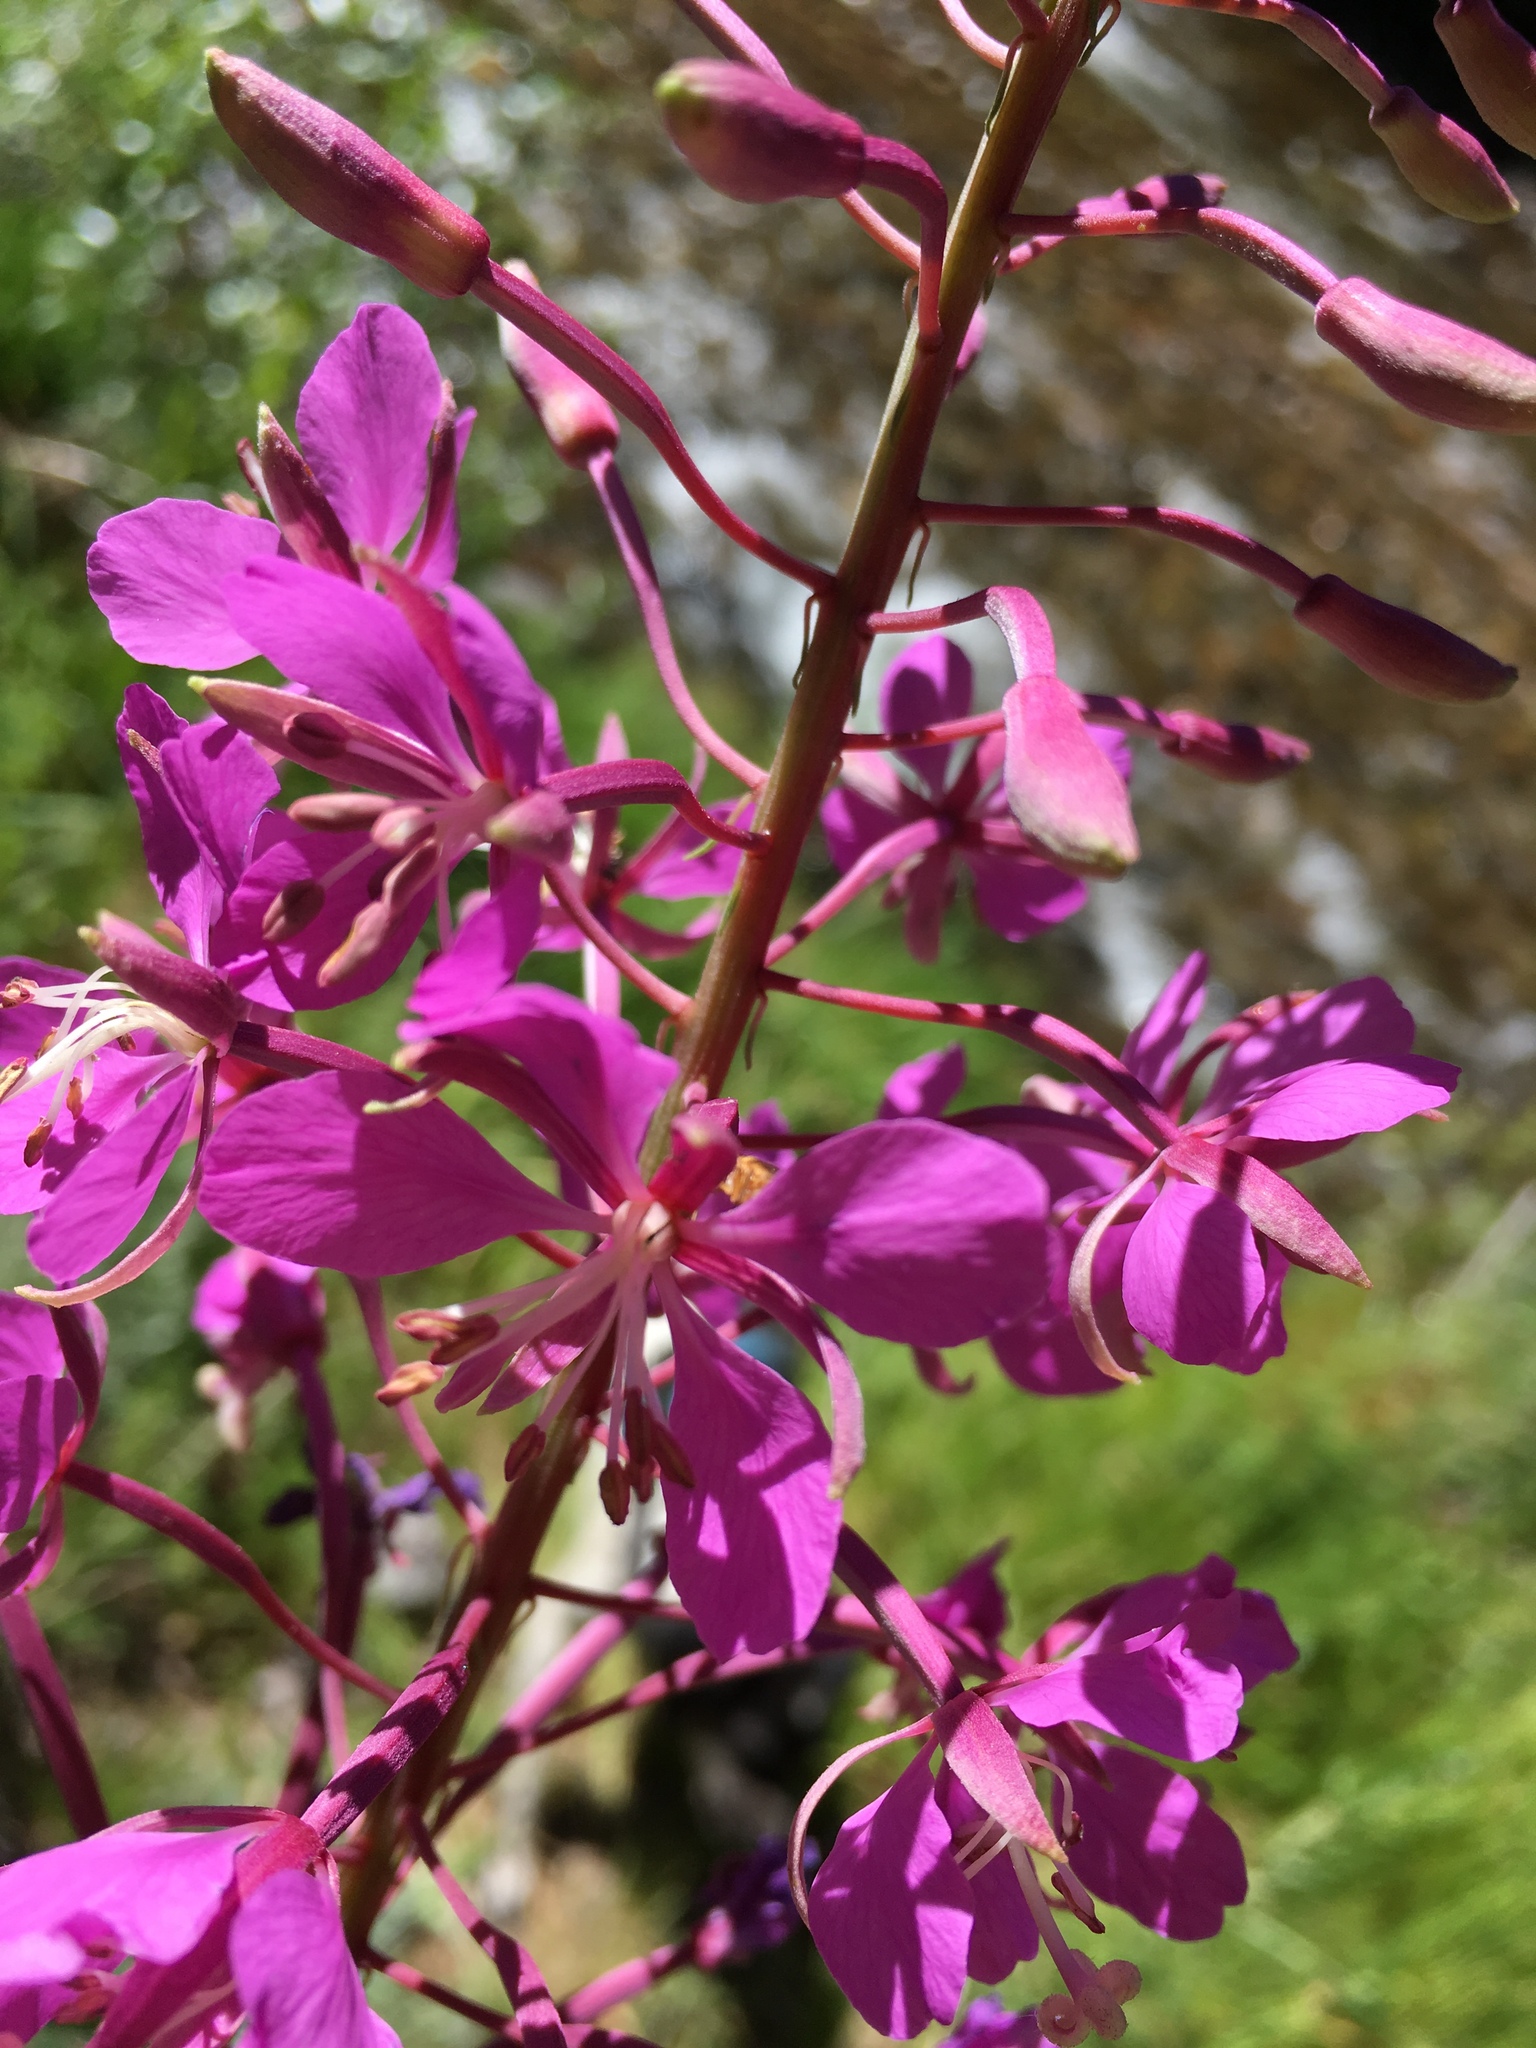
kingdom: Plantae
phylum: Tracheophyta
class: Magnoliopsida
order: Myrtales
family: Onagraceae
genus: Chamaenerion
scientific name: Chamaenerion angustifolium
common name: Fireweed
